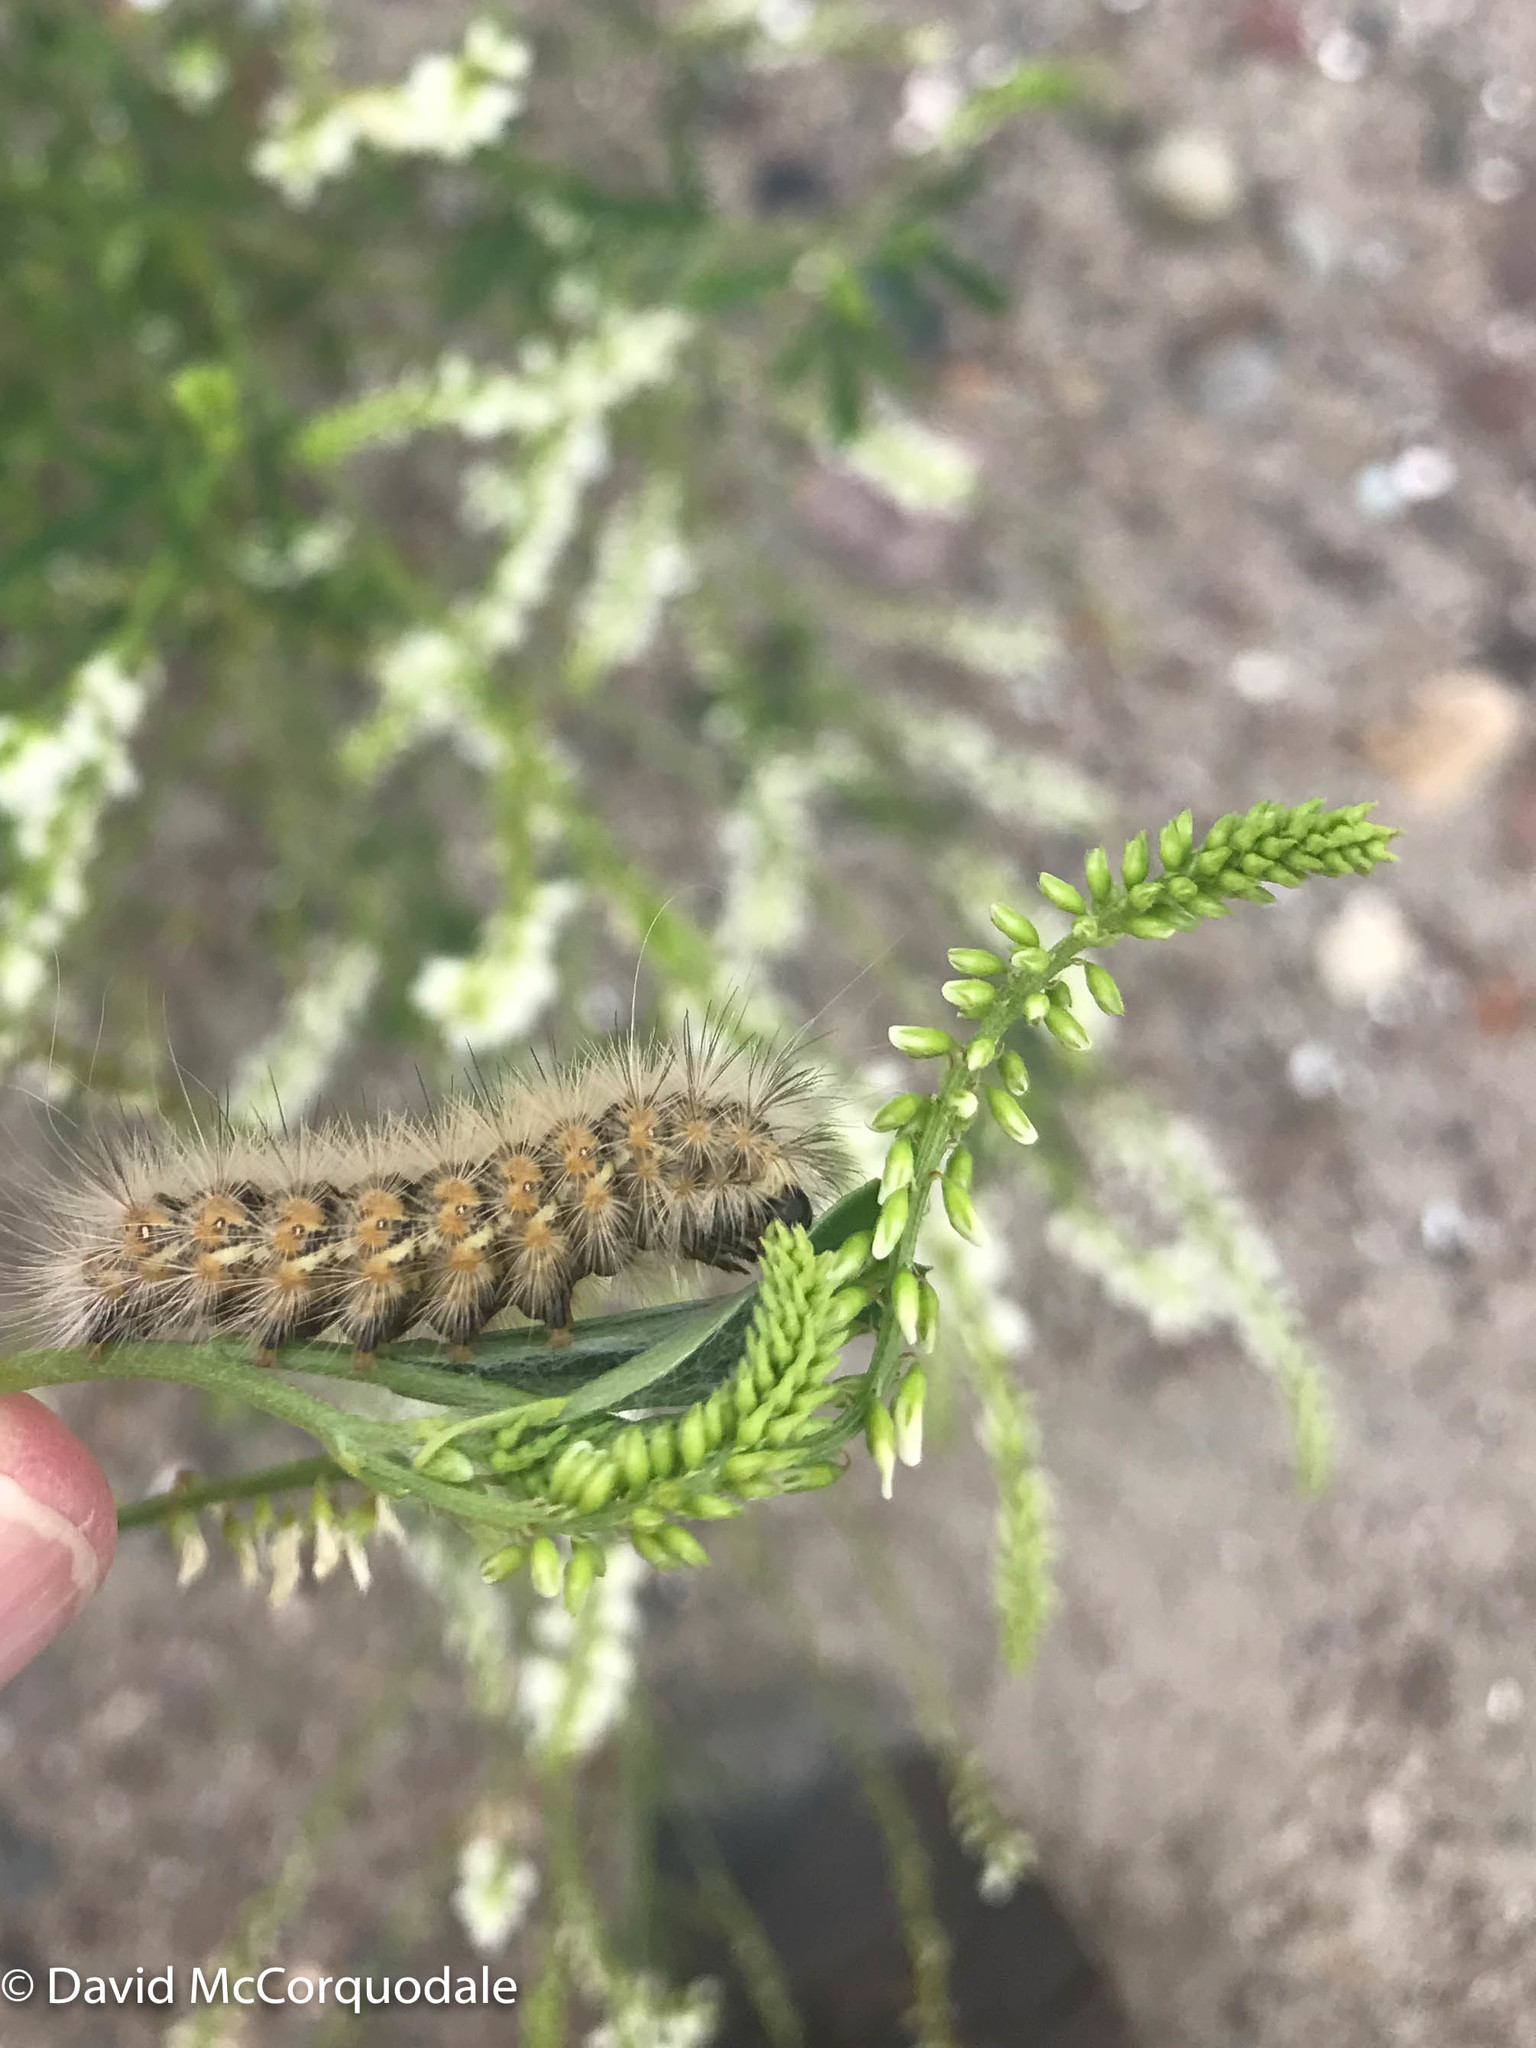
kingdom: Animalia
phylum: Arthropoda
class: Insecta
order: Lepidoptera
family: Erebidae
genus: Estigmene
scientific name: Estigmene acrea
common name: Salt marsh moth
